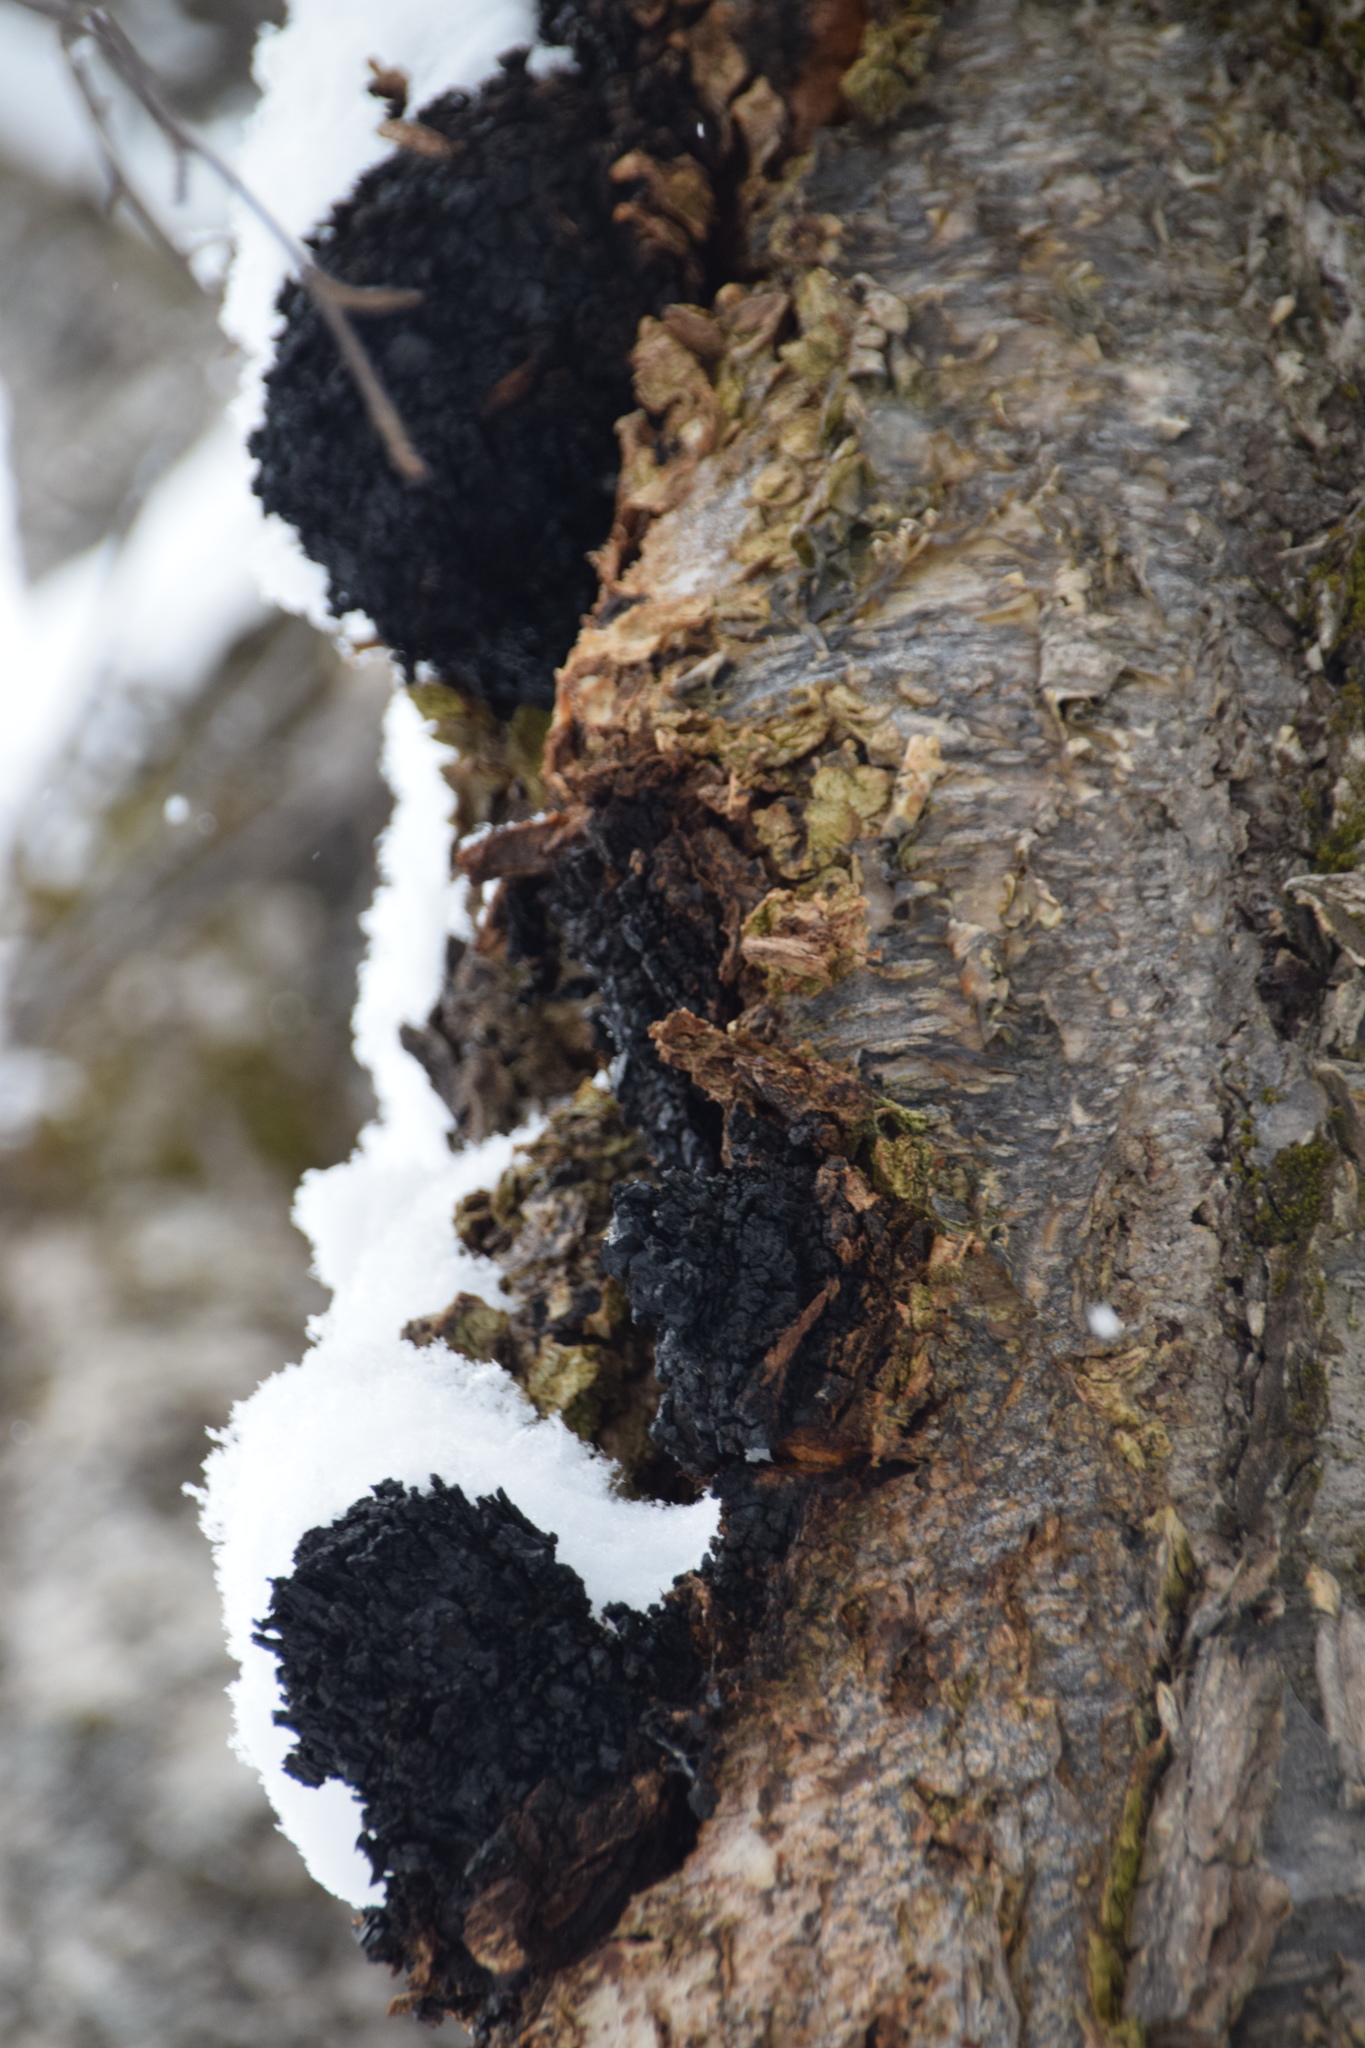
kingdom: Fungi
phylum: Basidiomycota
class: Agaricomycetes
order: Hymenochaetales
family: Hymenochaetaceae
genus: Inonotus
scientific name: Inonotus obliquus
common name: Chaga
